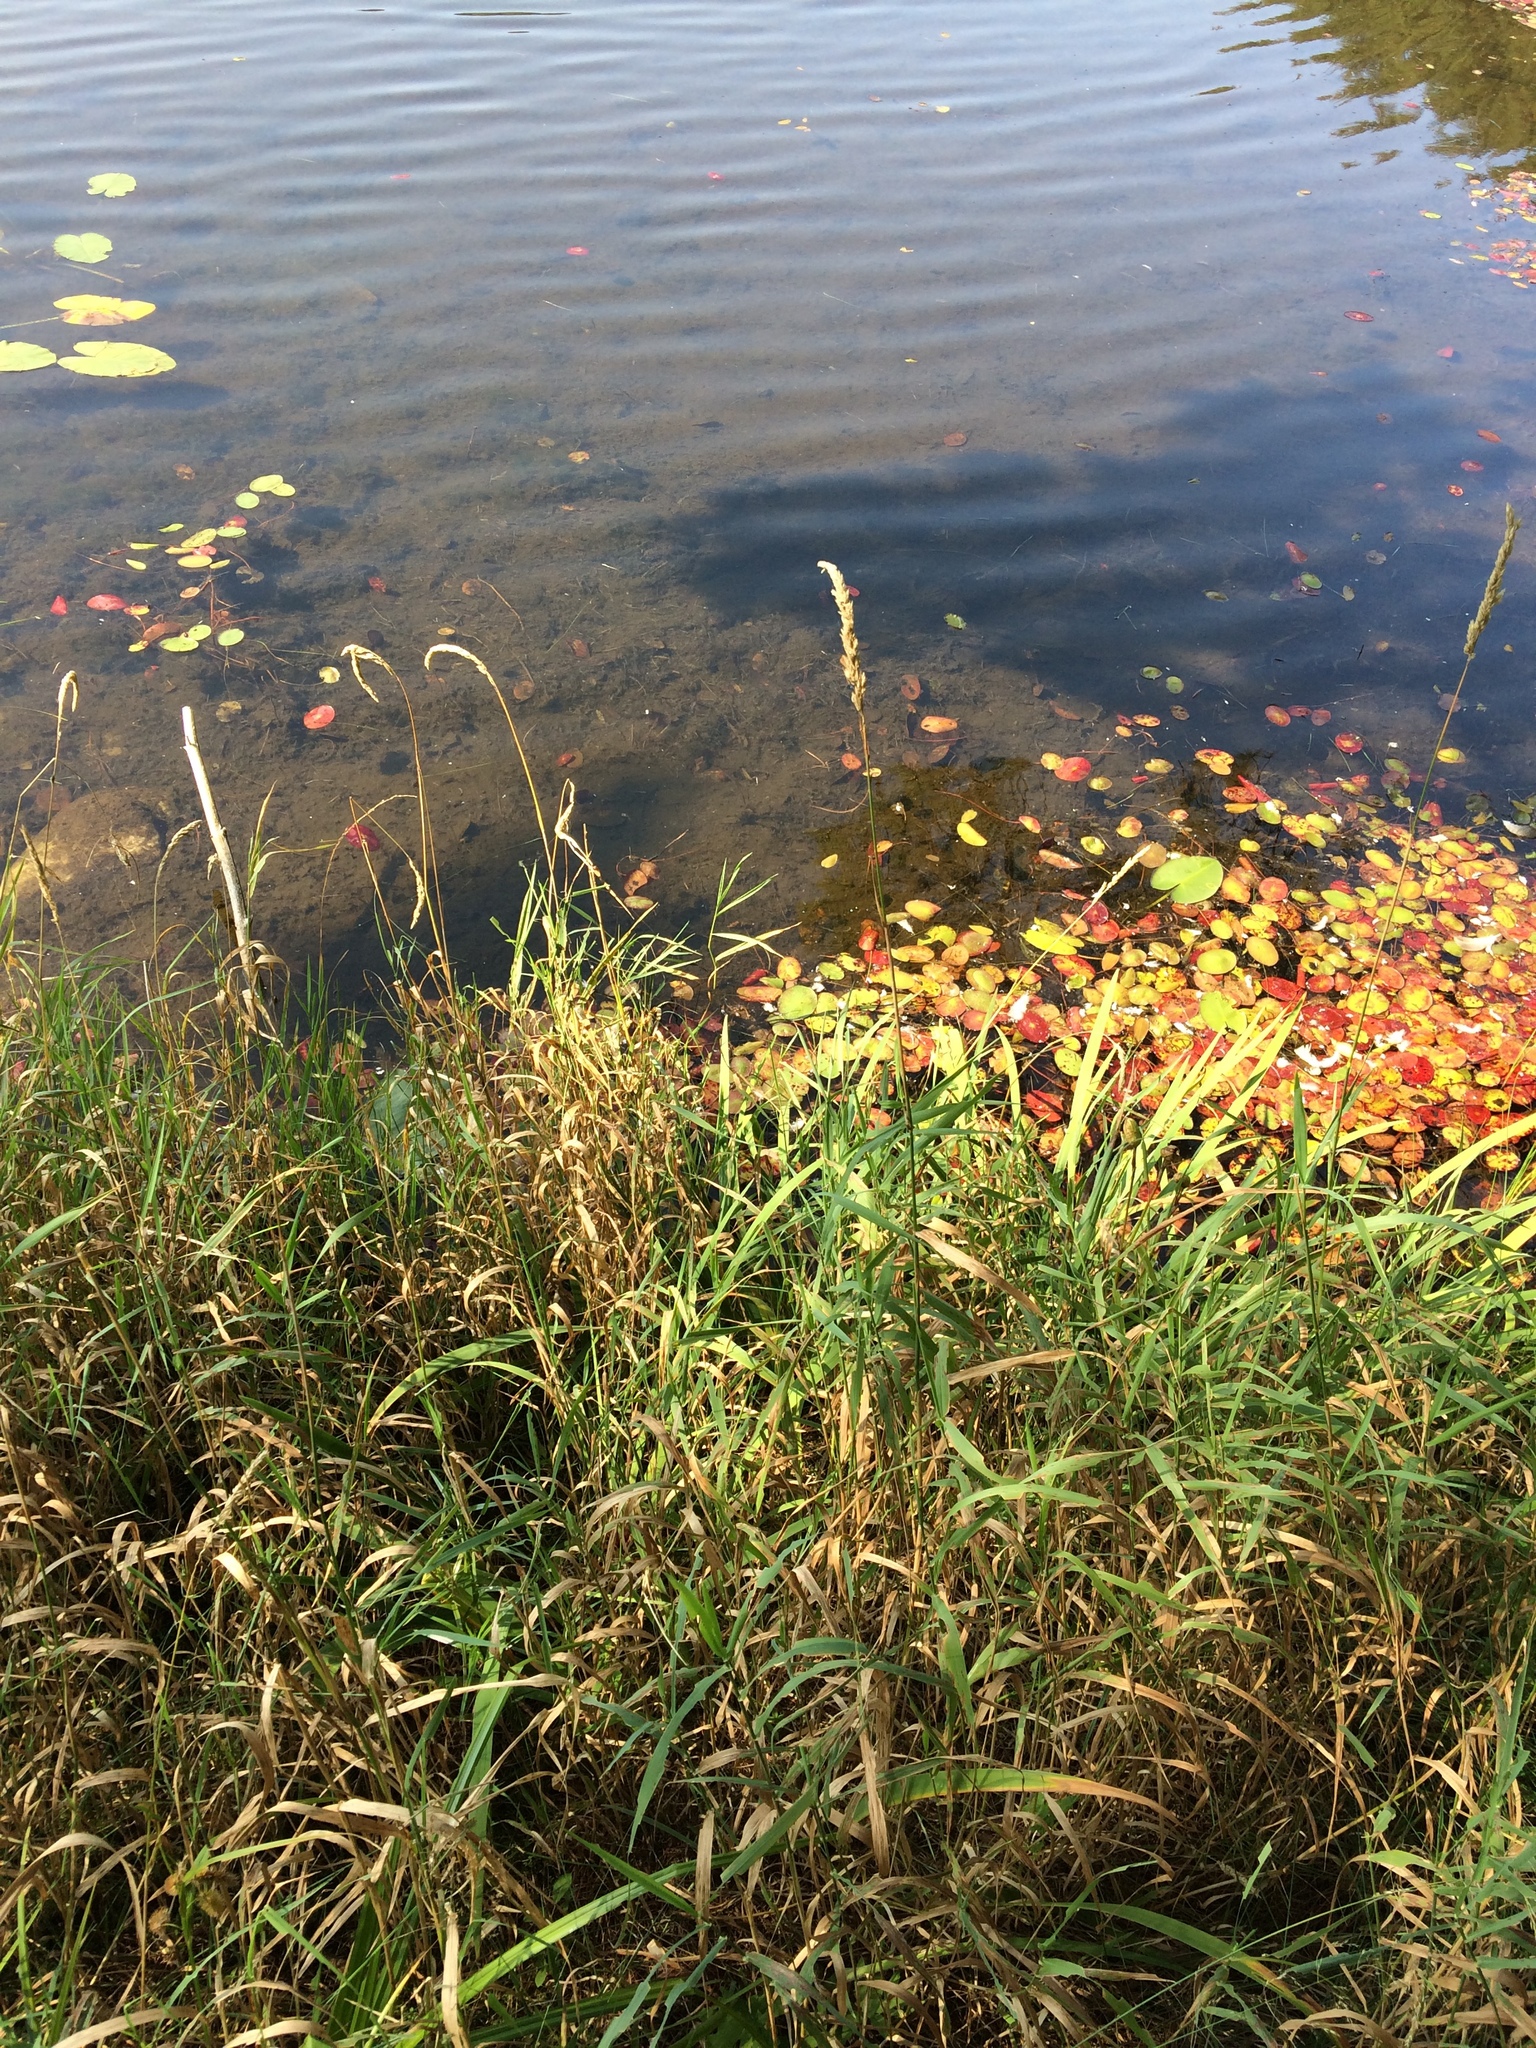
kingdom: Plantae
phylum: Tracheophyta
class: Liliopsida
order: Poales
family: Poaceae
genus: Phalaris
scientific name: Phalaris arundinacea
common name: Reed canary-grass
